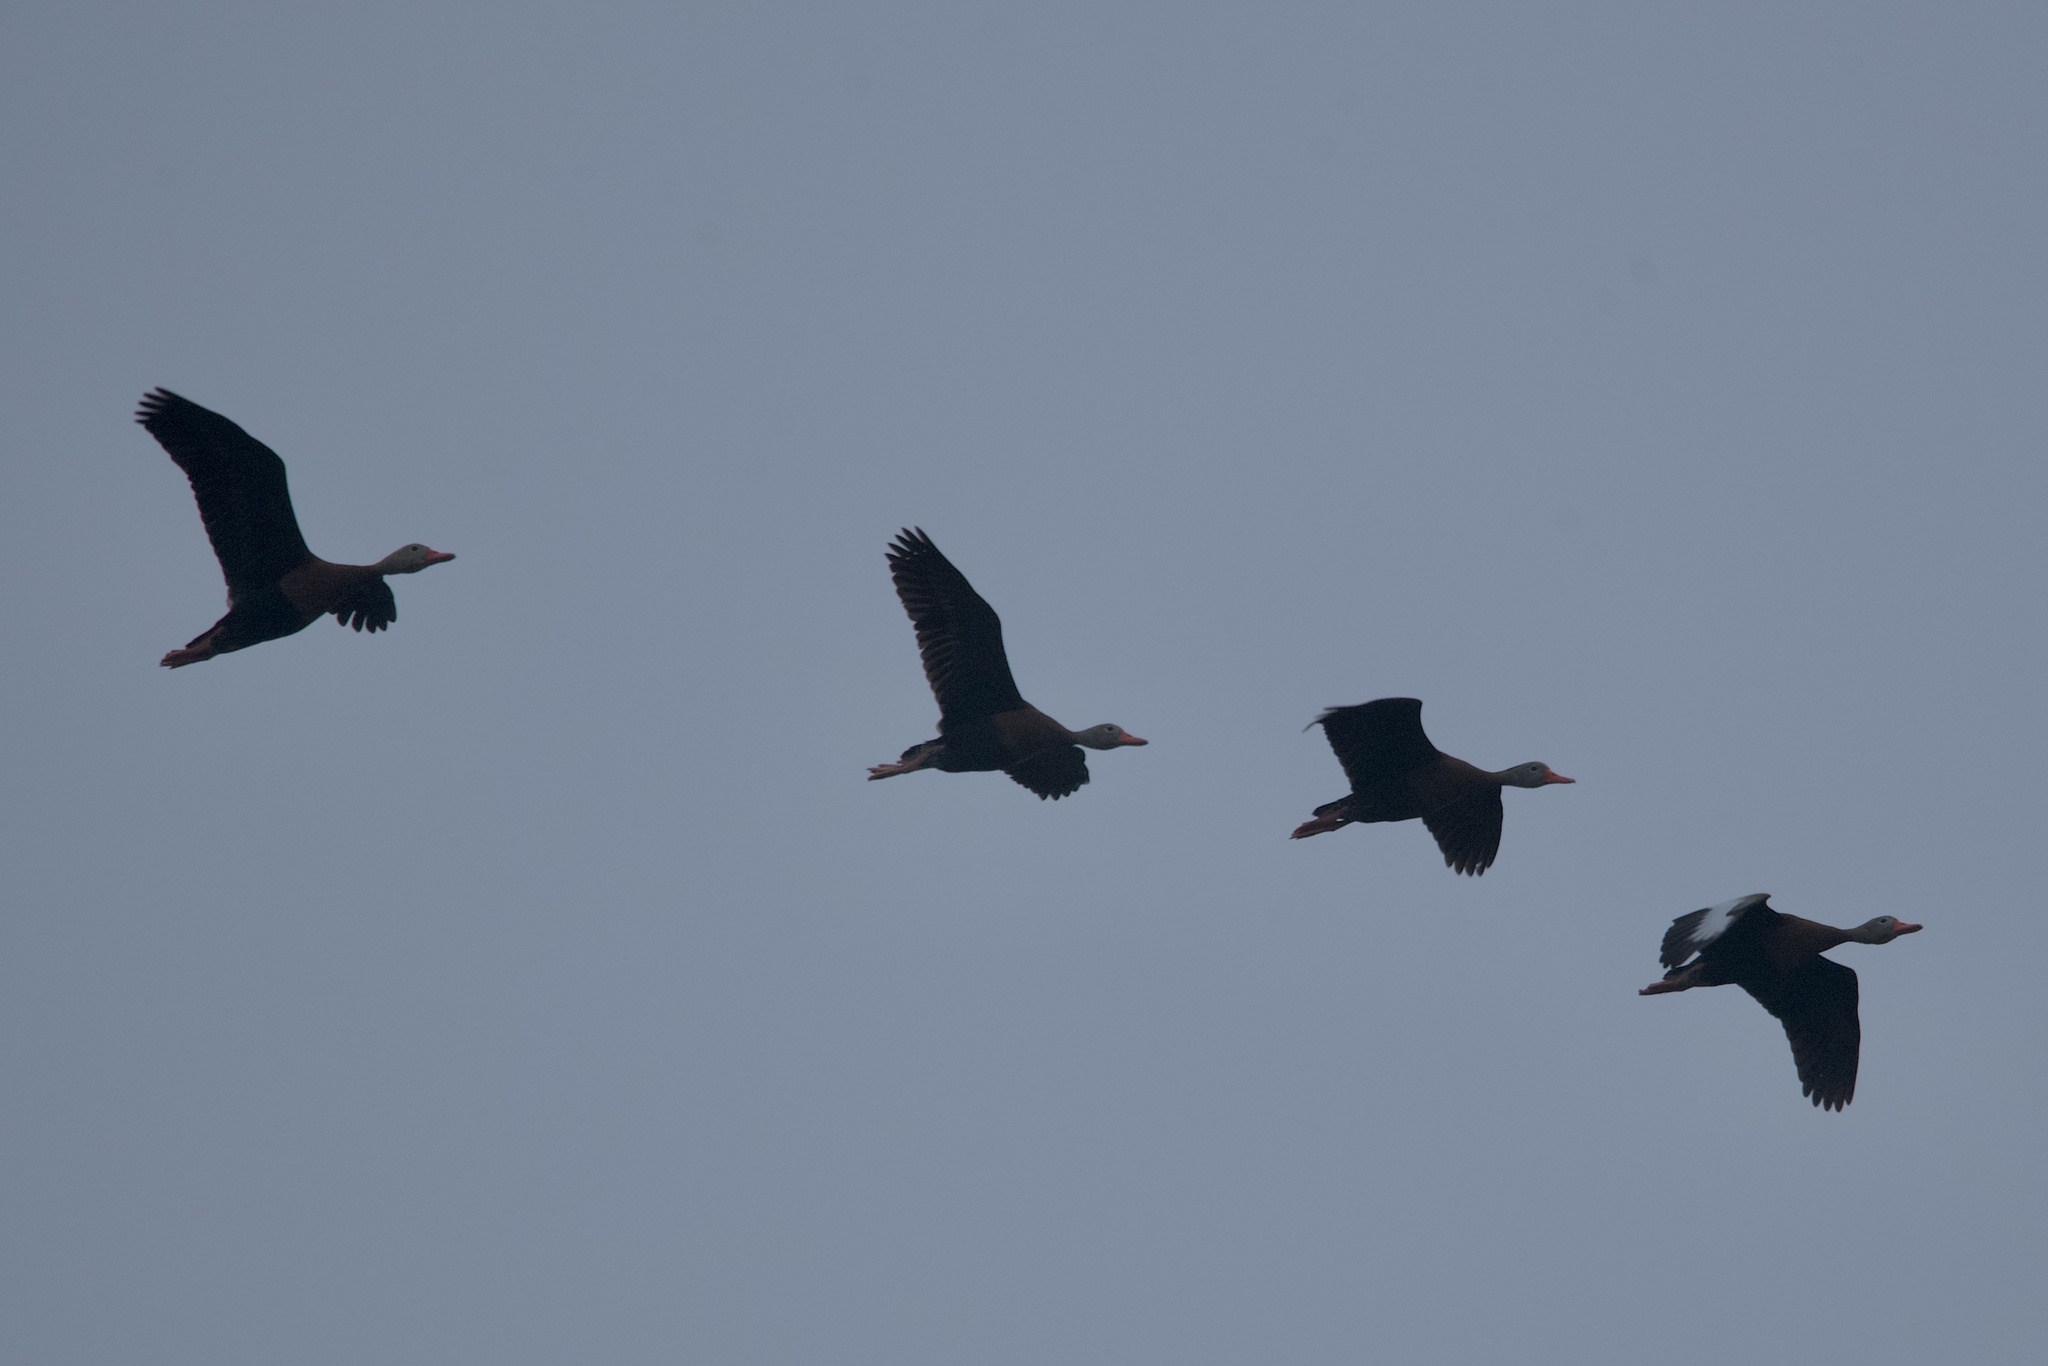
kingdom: Animalia
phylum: Chordata
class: Aves
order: Anseriformes
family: Anatidae
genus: Dendrocygna
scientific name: Dendrocygna autumnalis
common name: Black-bellied whistling duck
